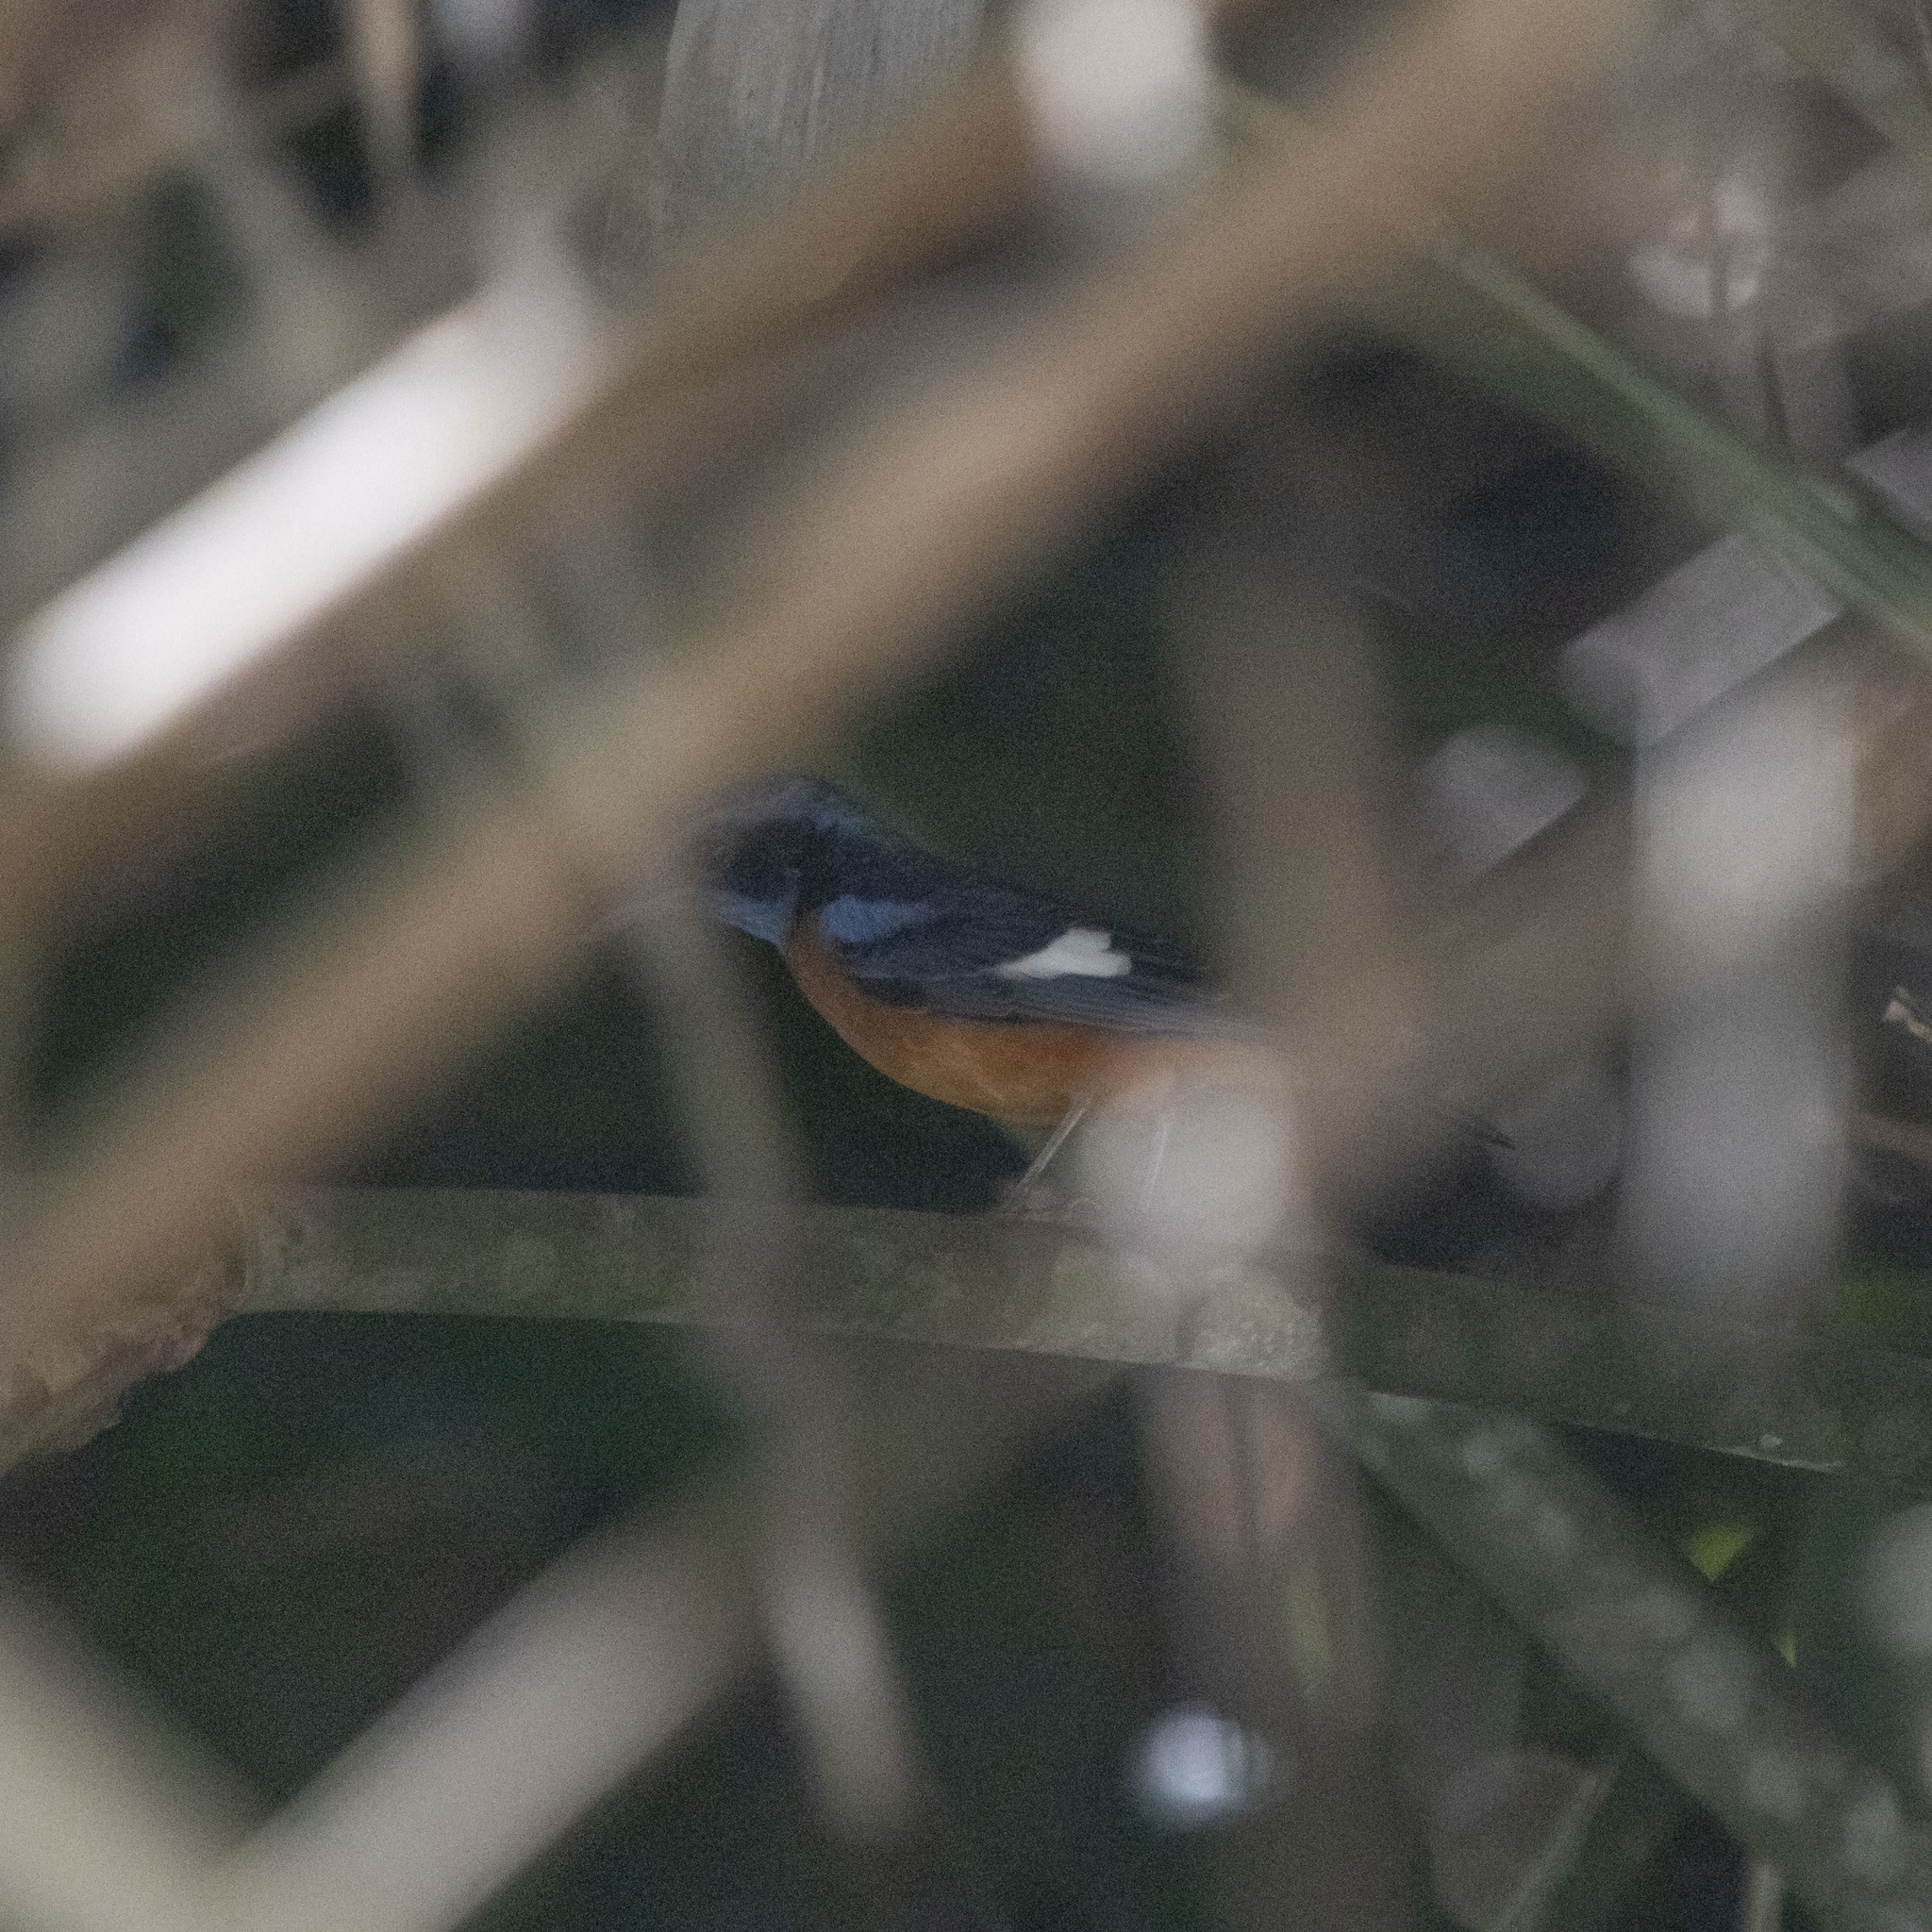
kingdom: Animalia
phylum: Chordata
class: Aves
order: Passeriformes
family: Muscicapidae
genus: Monticola
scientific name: Monticola cinclorhynchus
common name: Blue-capped rock thrush
